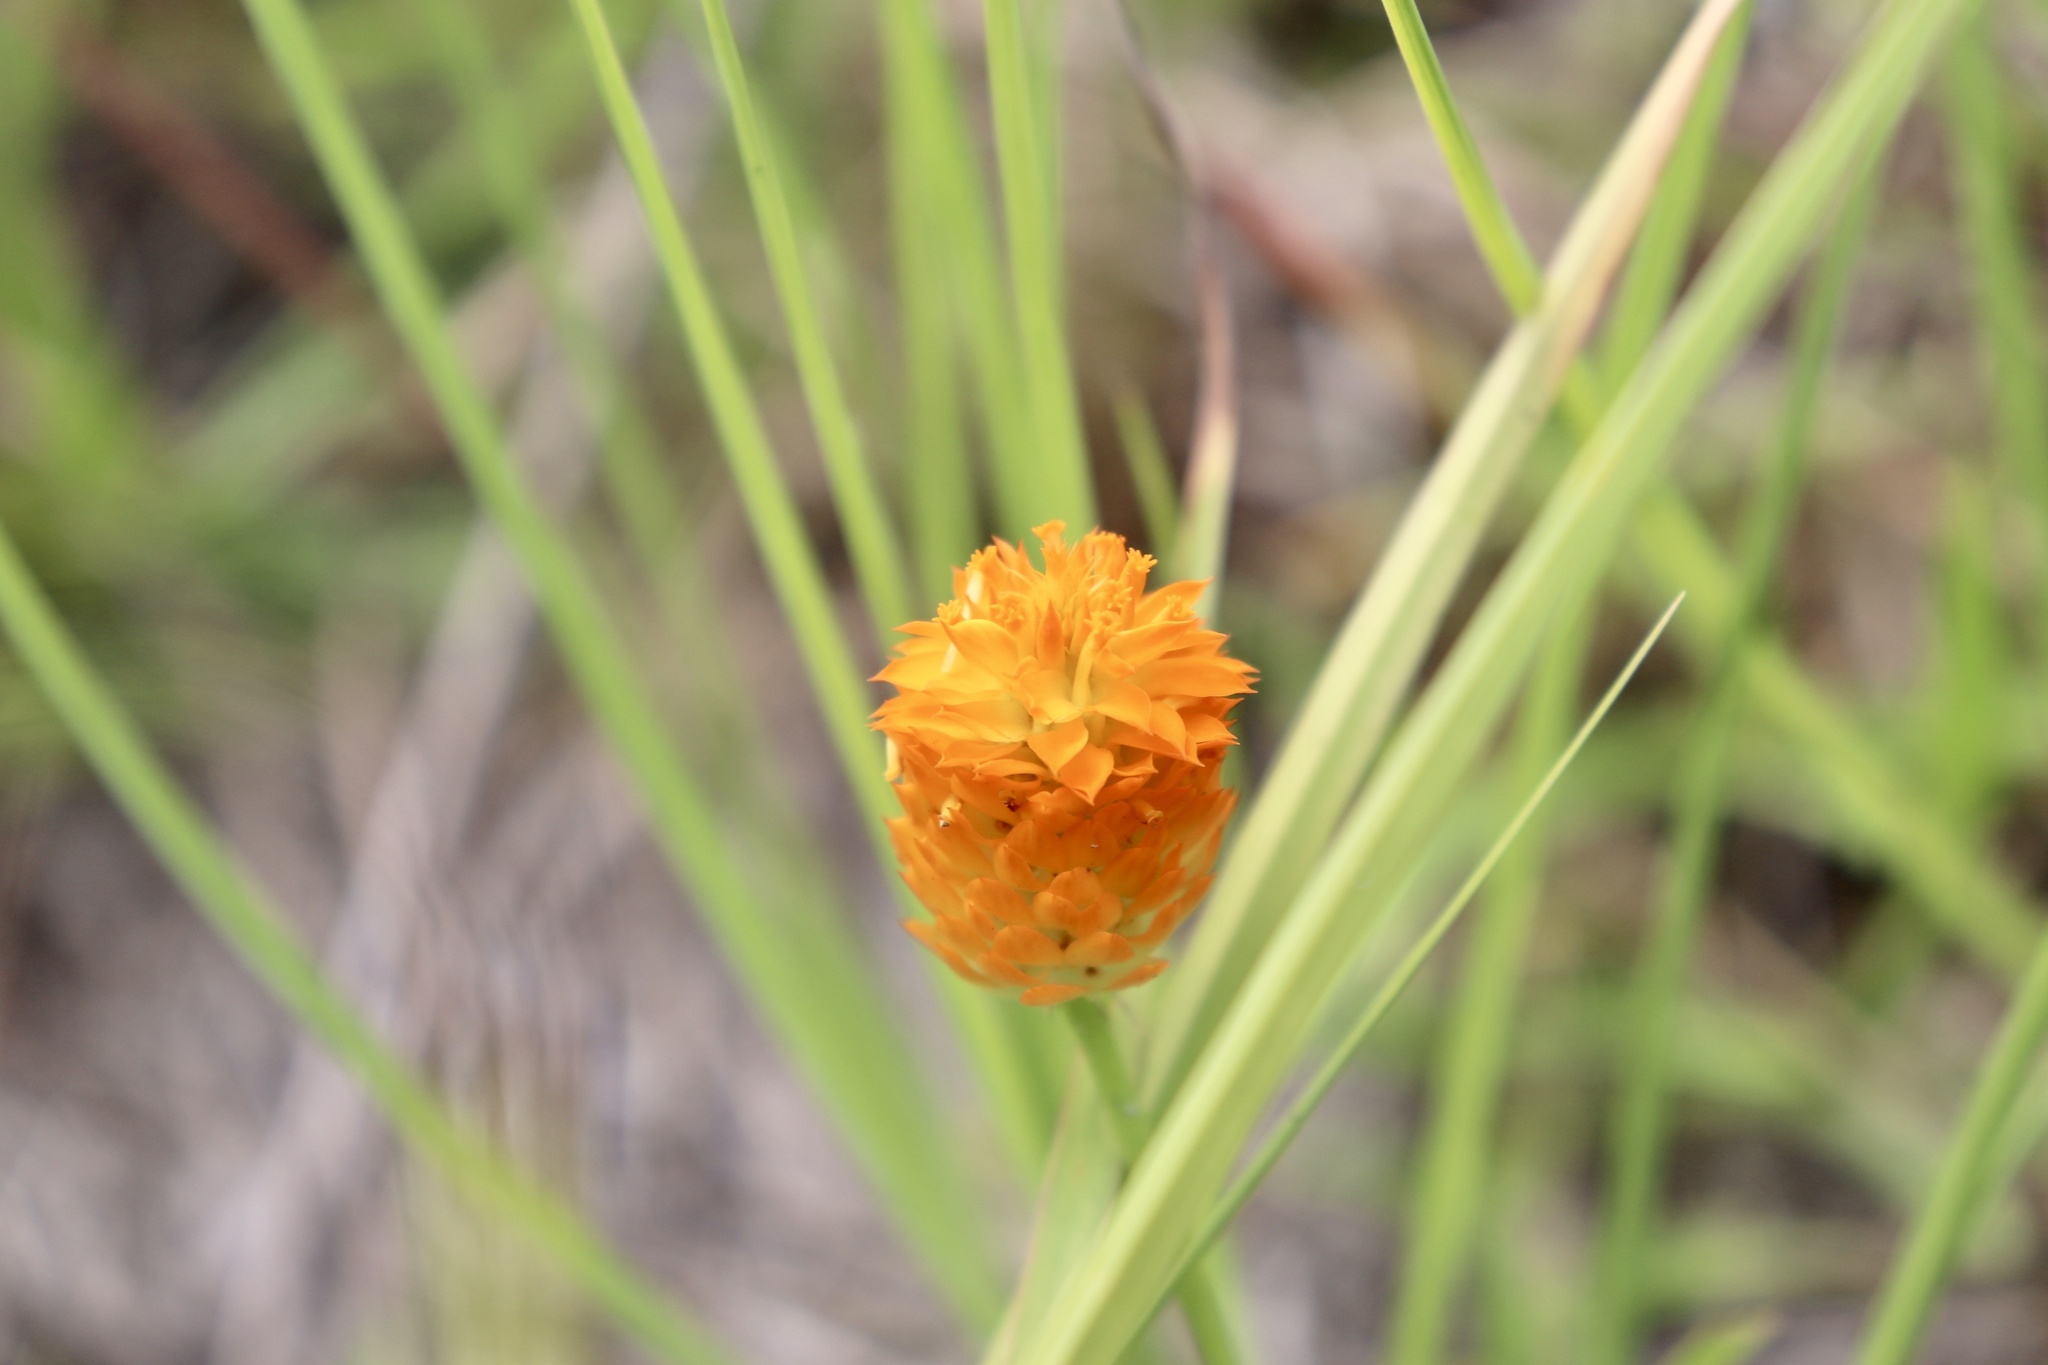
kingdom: Plantae
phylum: Tracheophyta
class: Magnoliopsida
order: Fabales
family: Polygalaceae
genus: Polygala
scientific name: Polygala lutea
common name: Orange milkwort
